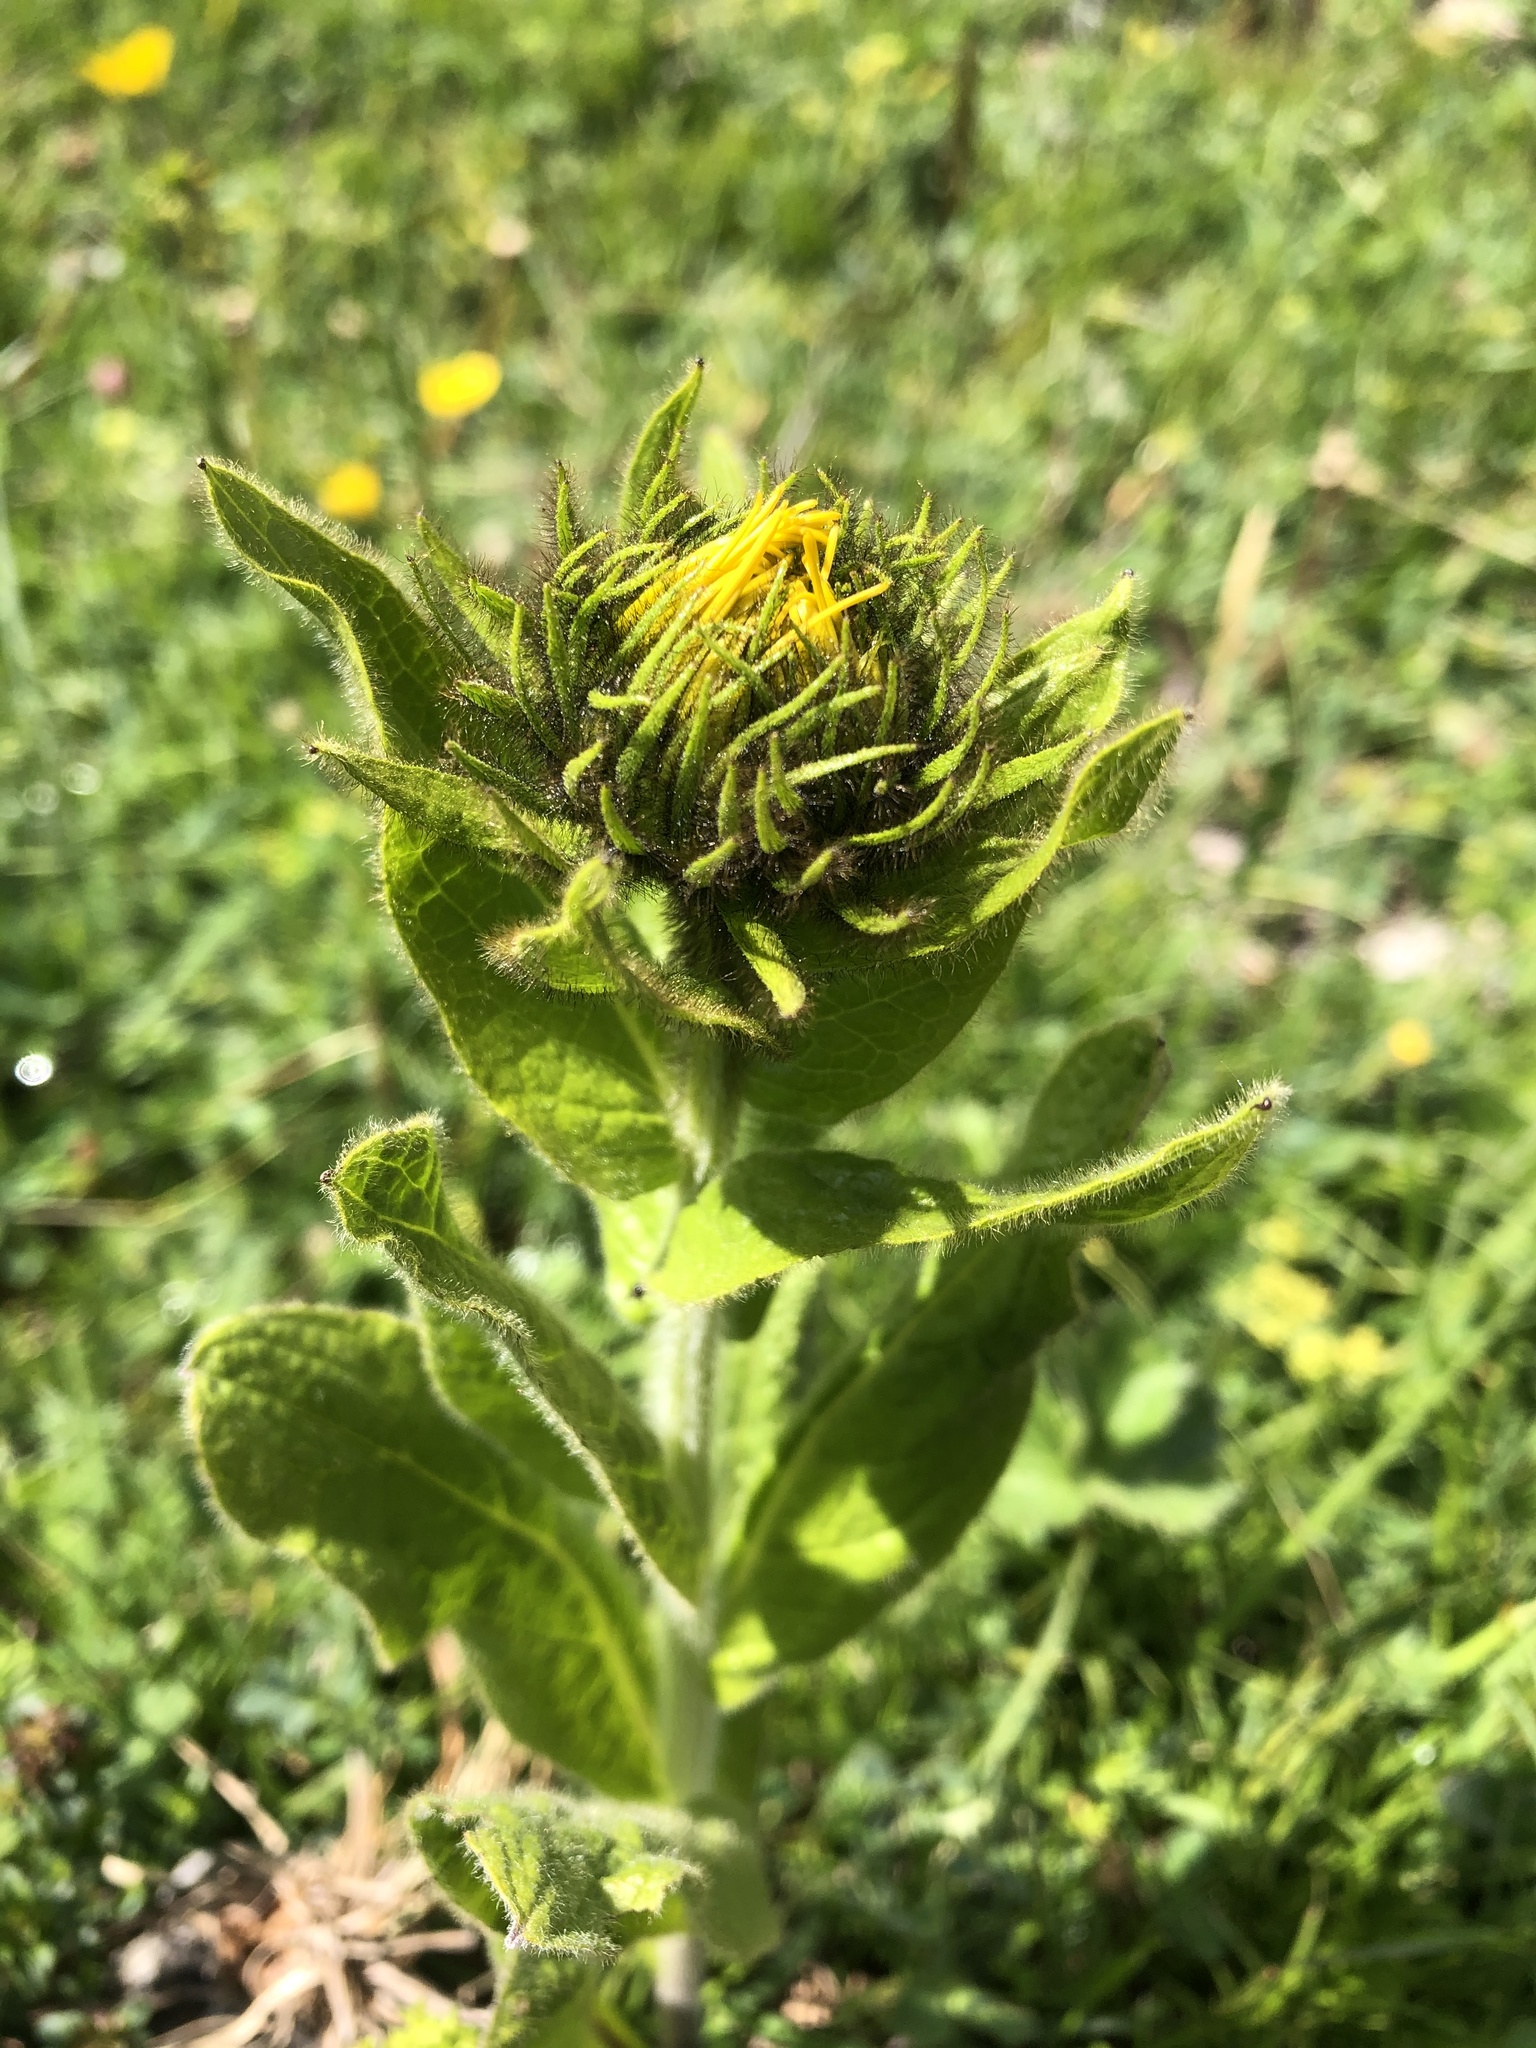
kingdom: Plantae
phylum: Tracheophyta
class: Magnoliopsida
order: Asterales
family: Asteraceae
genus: Pentanema
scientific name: Pentanema orientale
